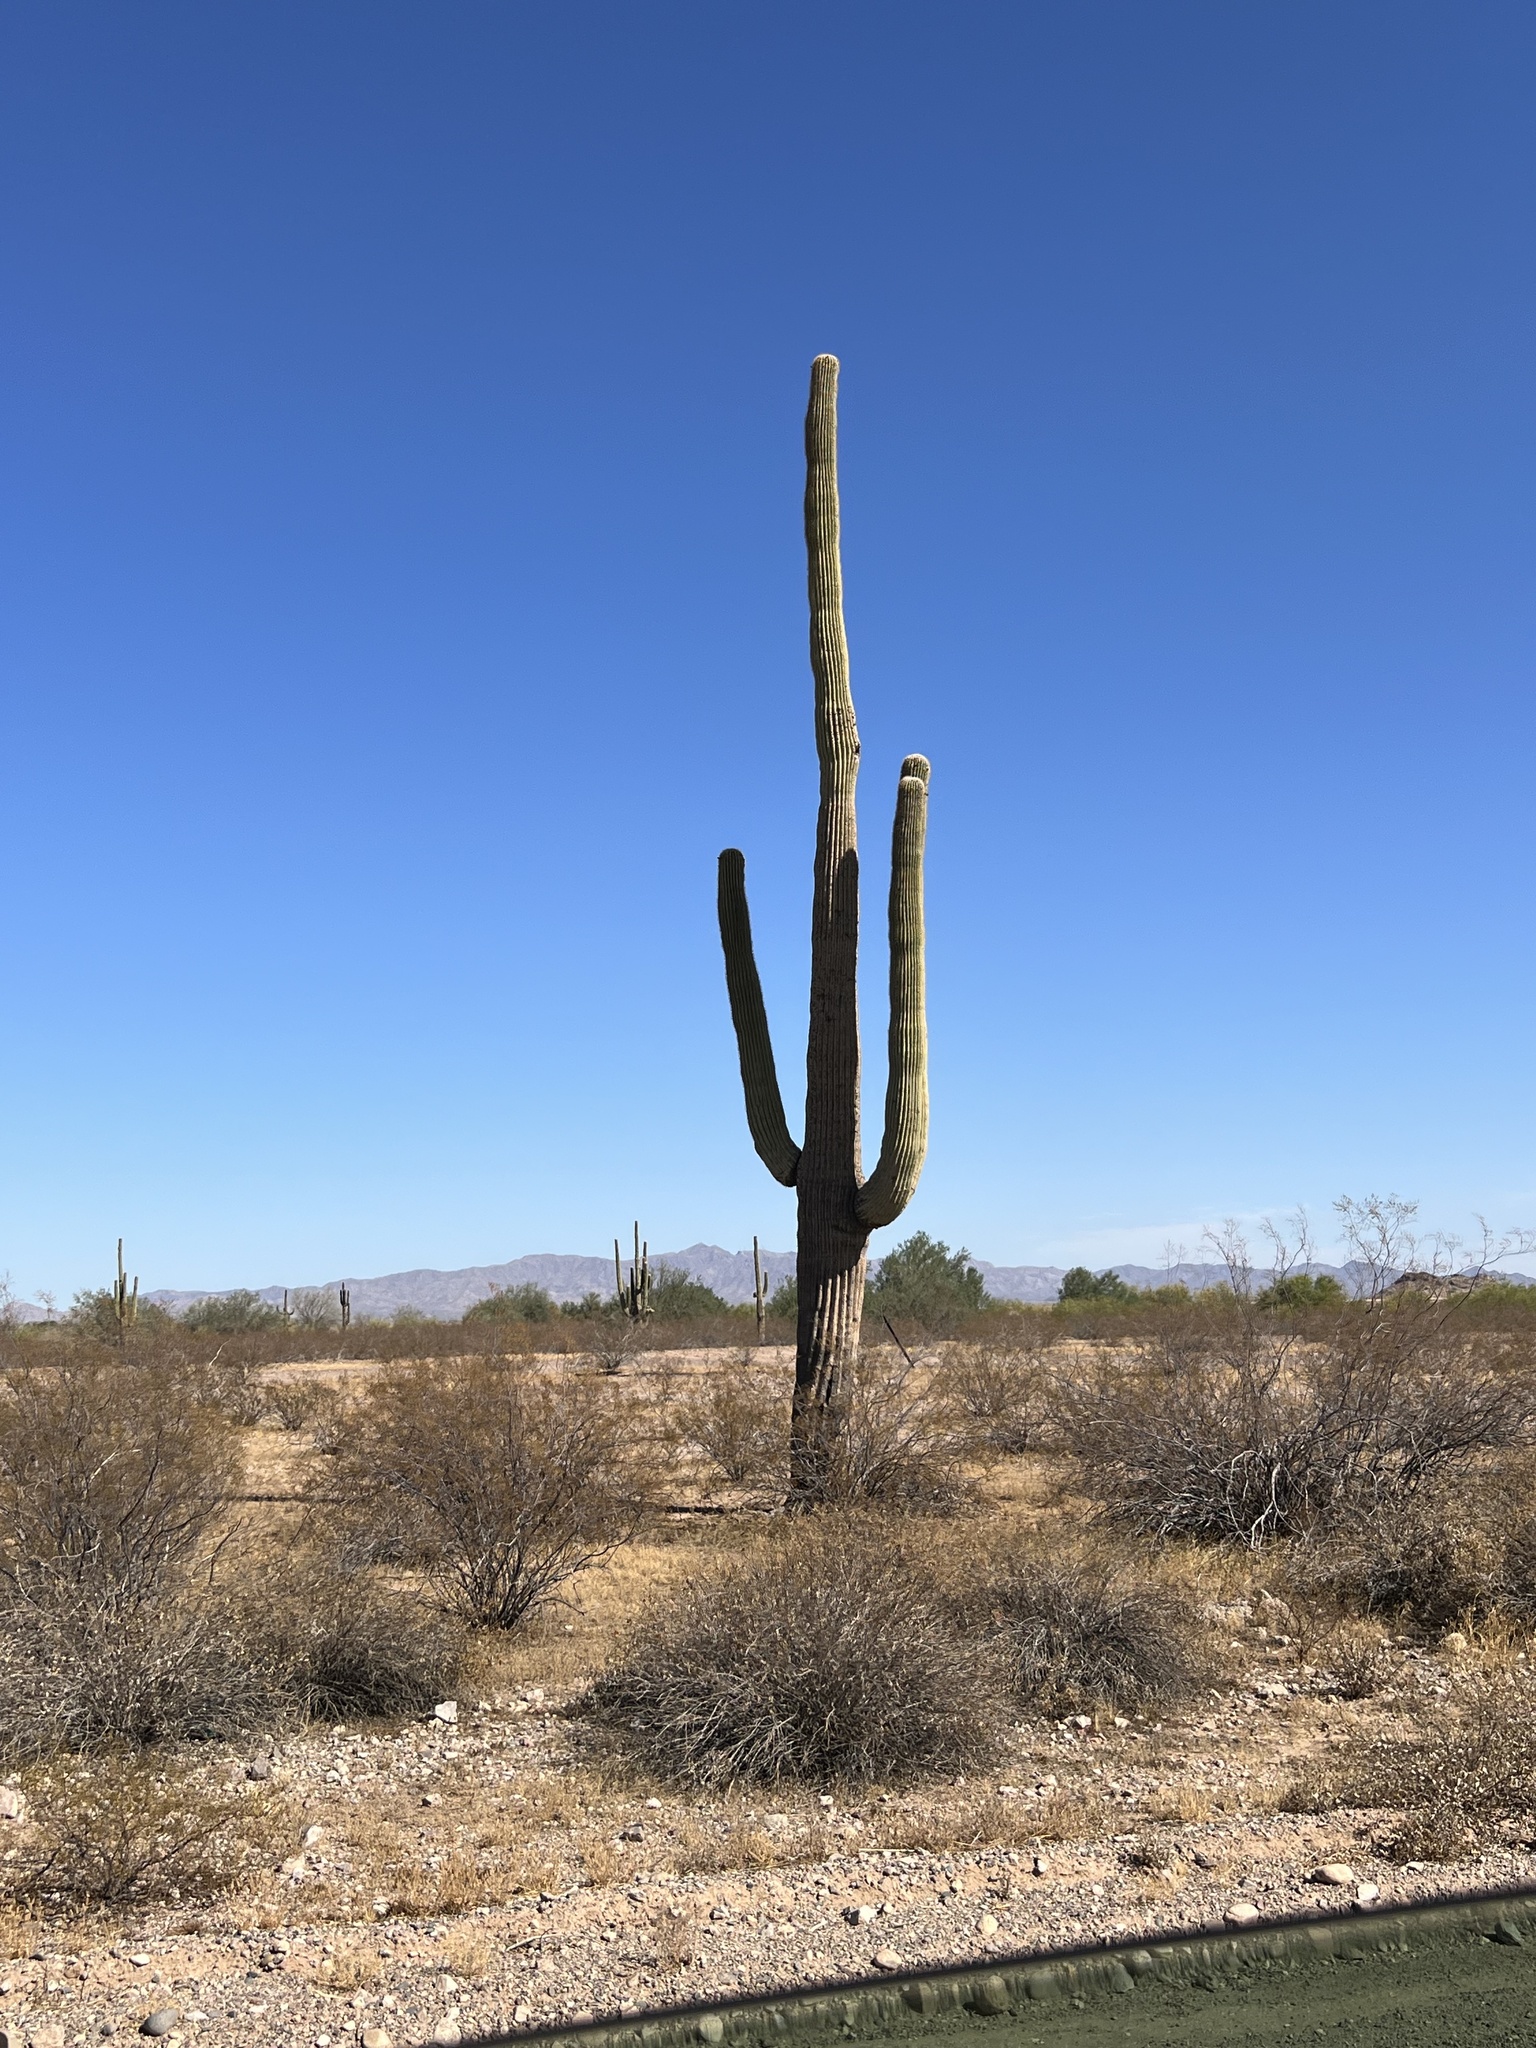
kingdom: Plantae
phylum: Tracheophyta
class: Magnoliopsida
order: Caryophyllales
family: Cactaceae
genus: Carnegiea
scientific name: Carnegiea gigantea
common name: Saguaro
